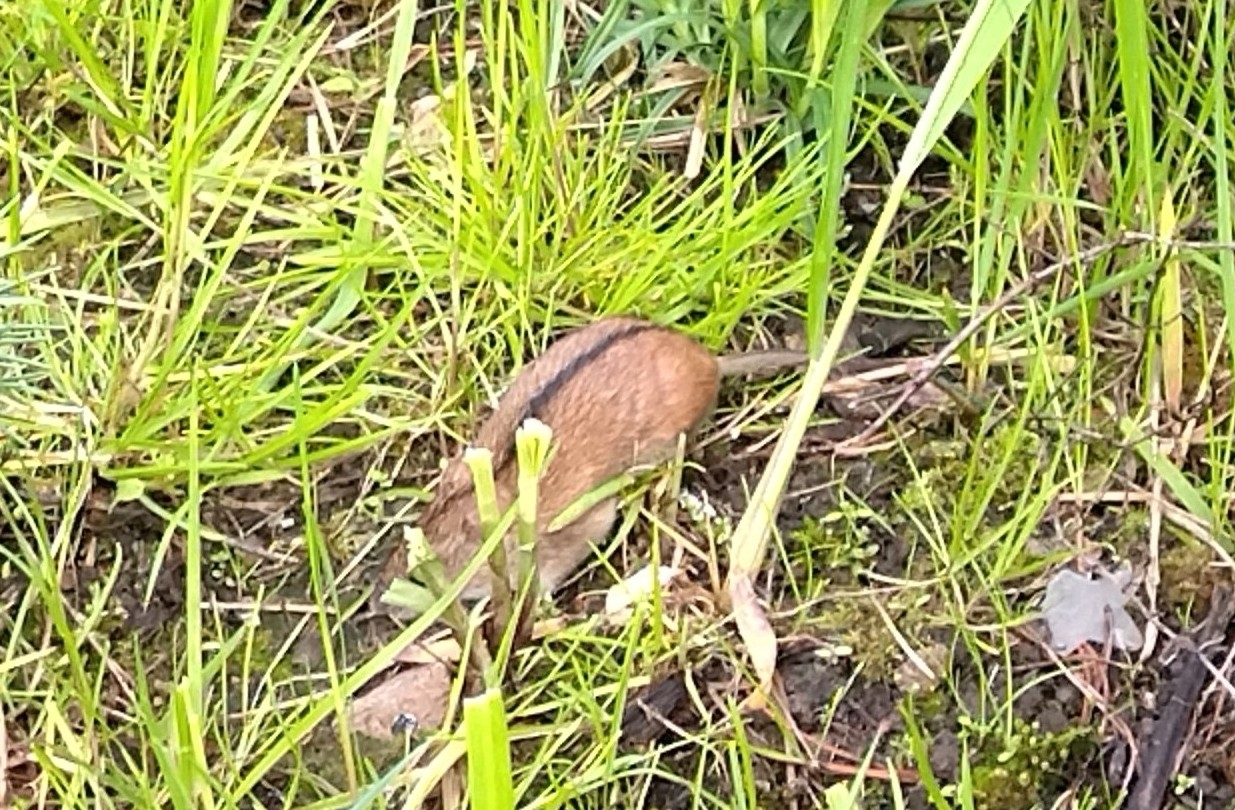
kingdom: Animalia
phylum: Chordata
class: Mammalia
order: Rodentia
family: Muridae
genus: Apodemus
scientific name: Apodemus agrarius
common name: Striped field mouse
